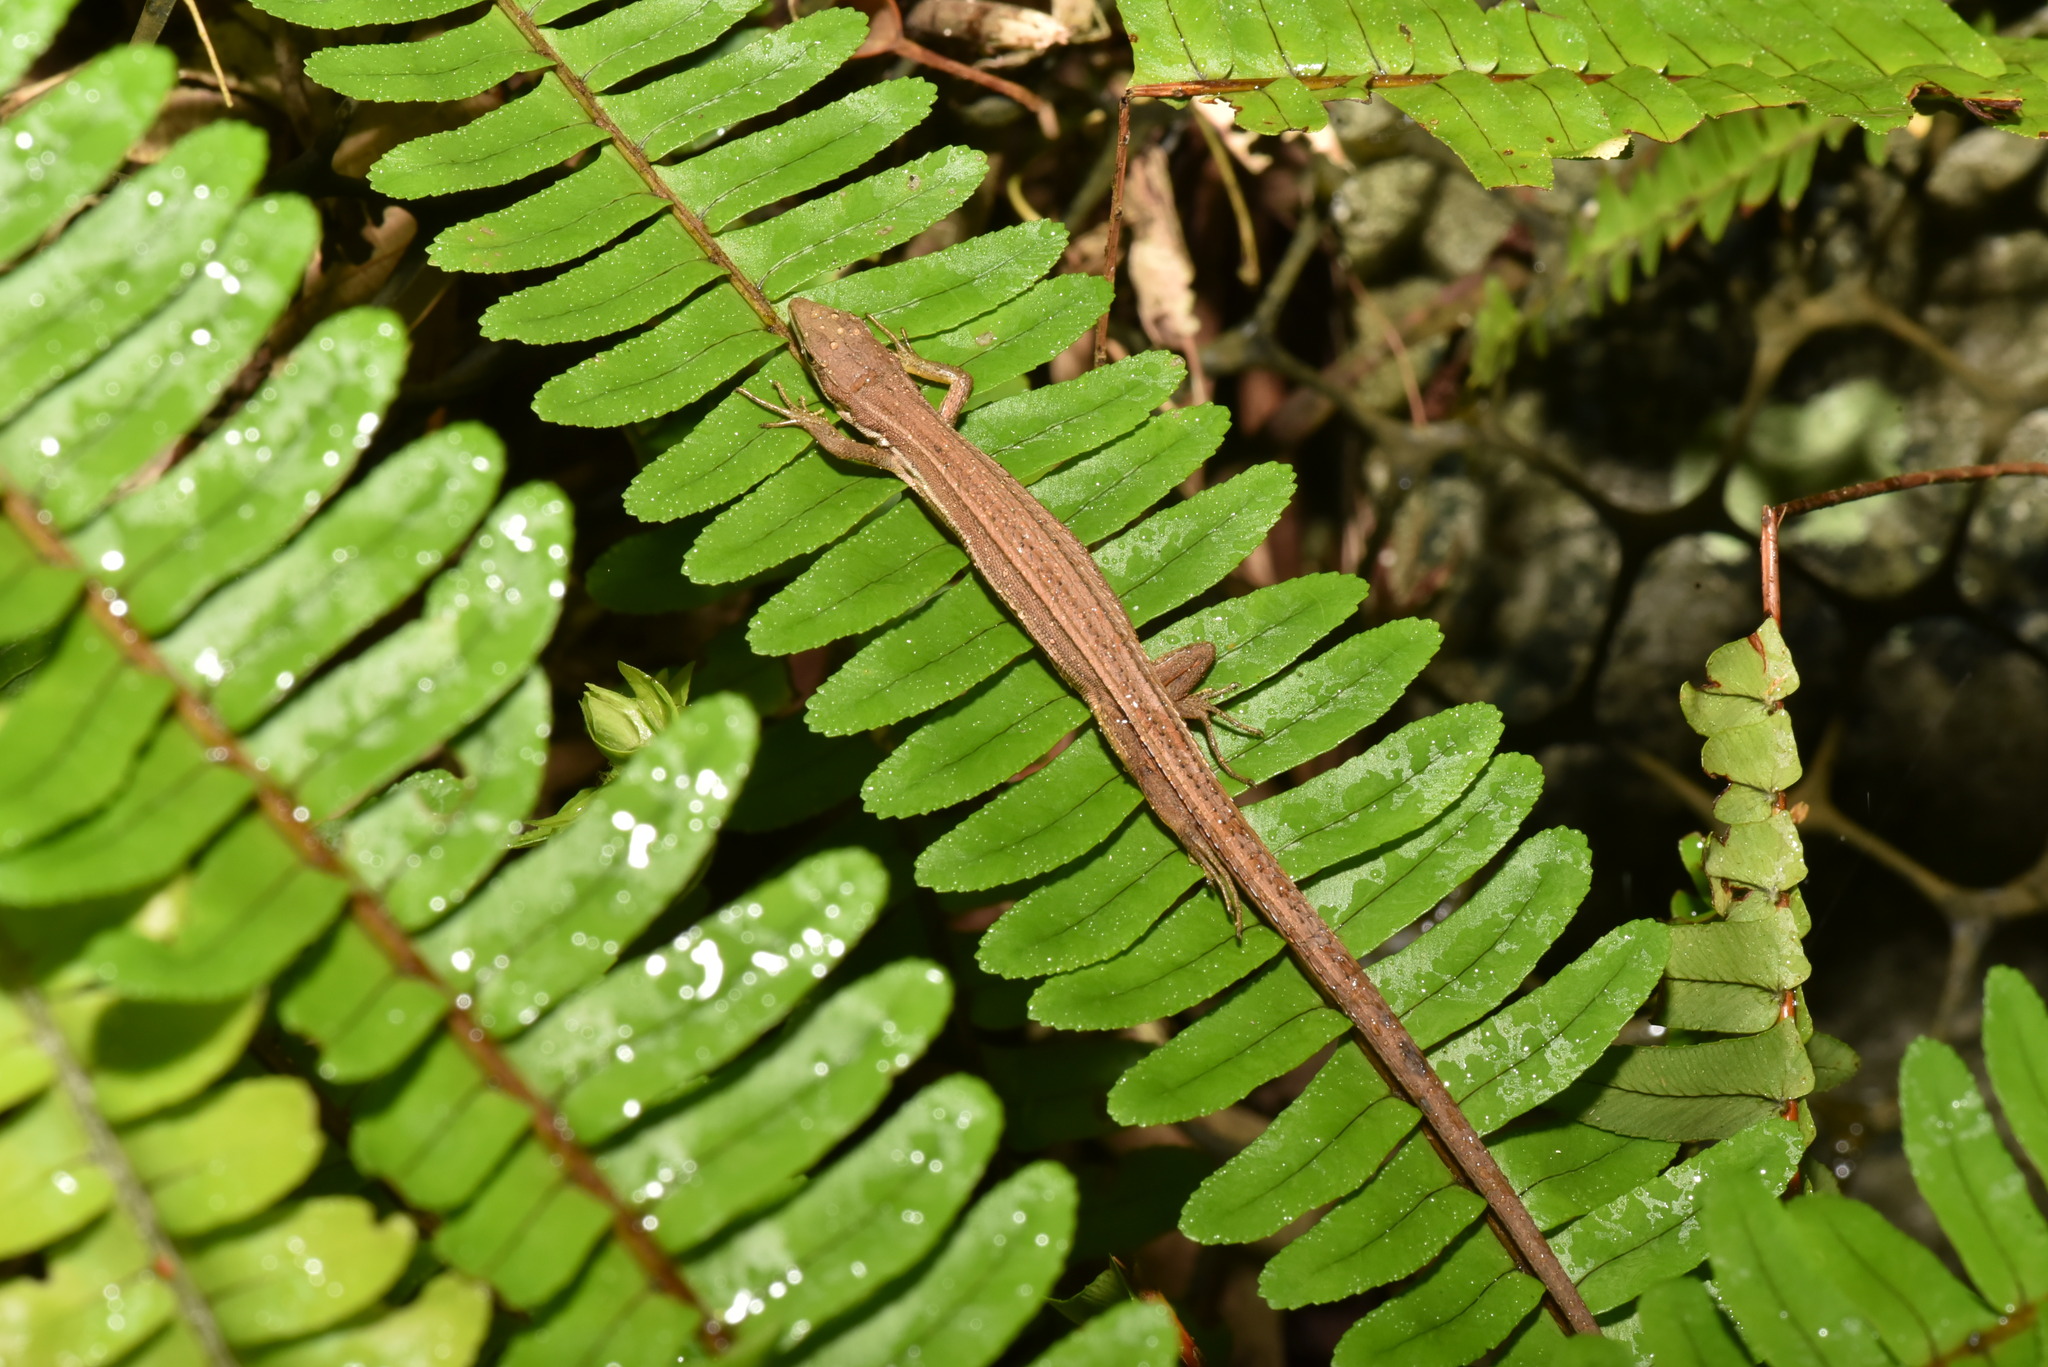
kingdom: Animalia
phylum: Chordata
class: Squamata
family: Lacertidae
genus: Takydromus
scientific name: Takydromus viridipunctatus
